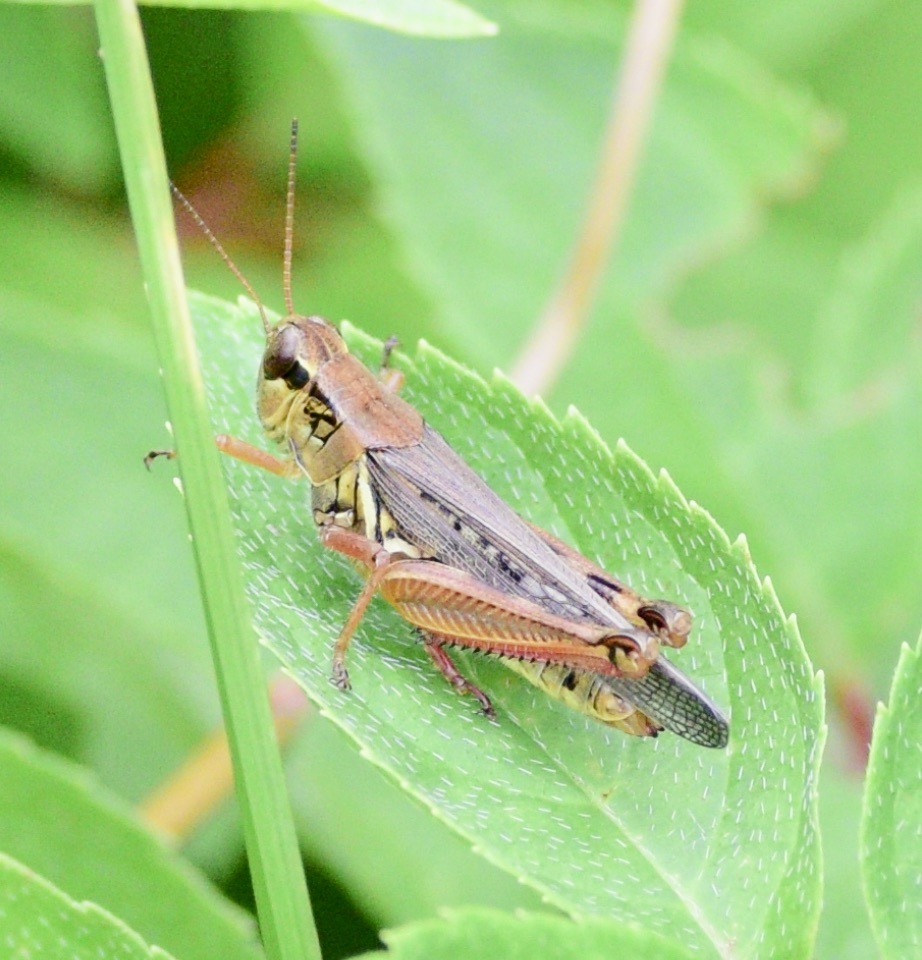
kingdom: Animalia
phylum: Arthropoda
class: Insecta
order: Orthoptera
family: Acrididae
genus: Melanoplus
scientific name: Melanoplus femurrubrum
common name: Red-legged grasshopper
